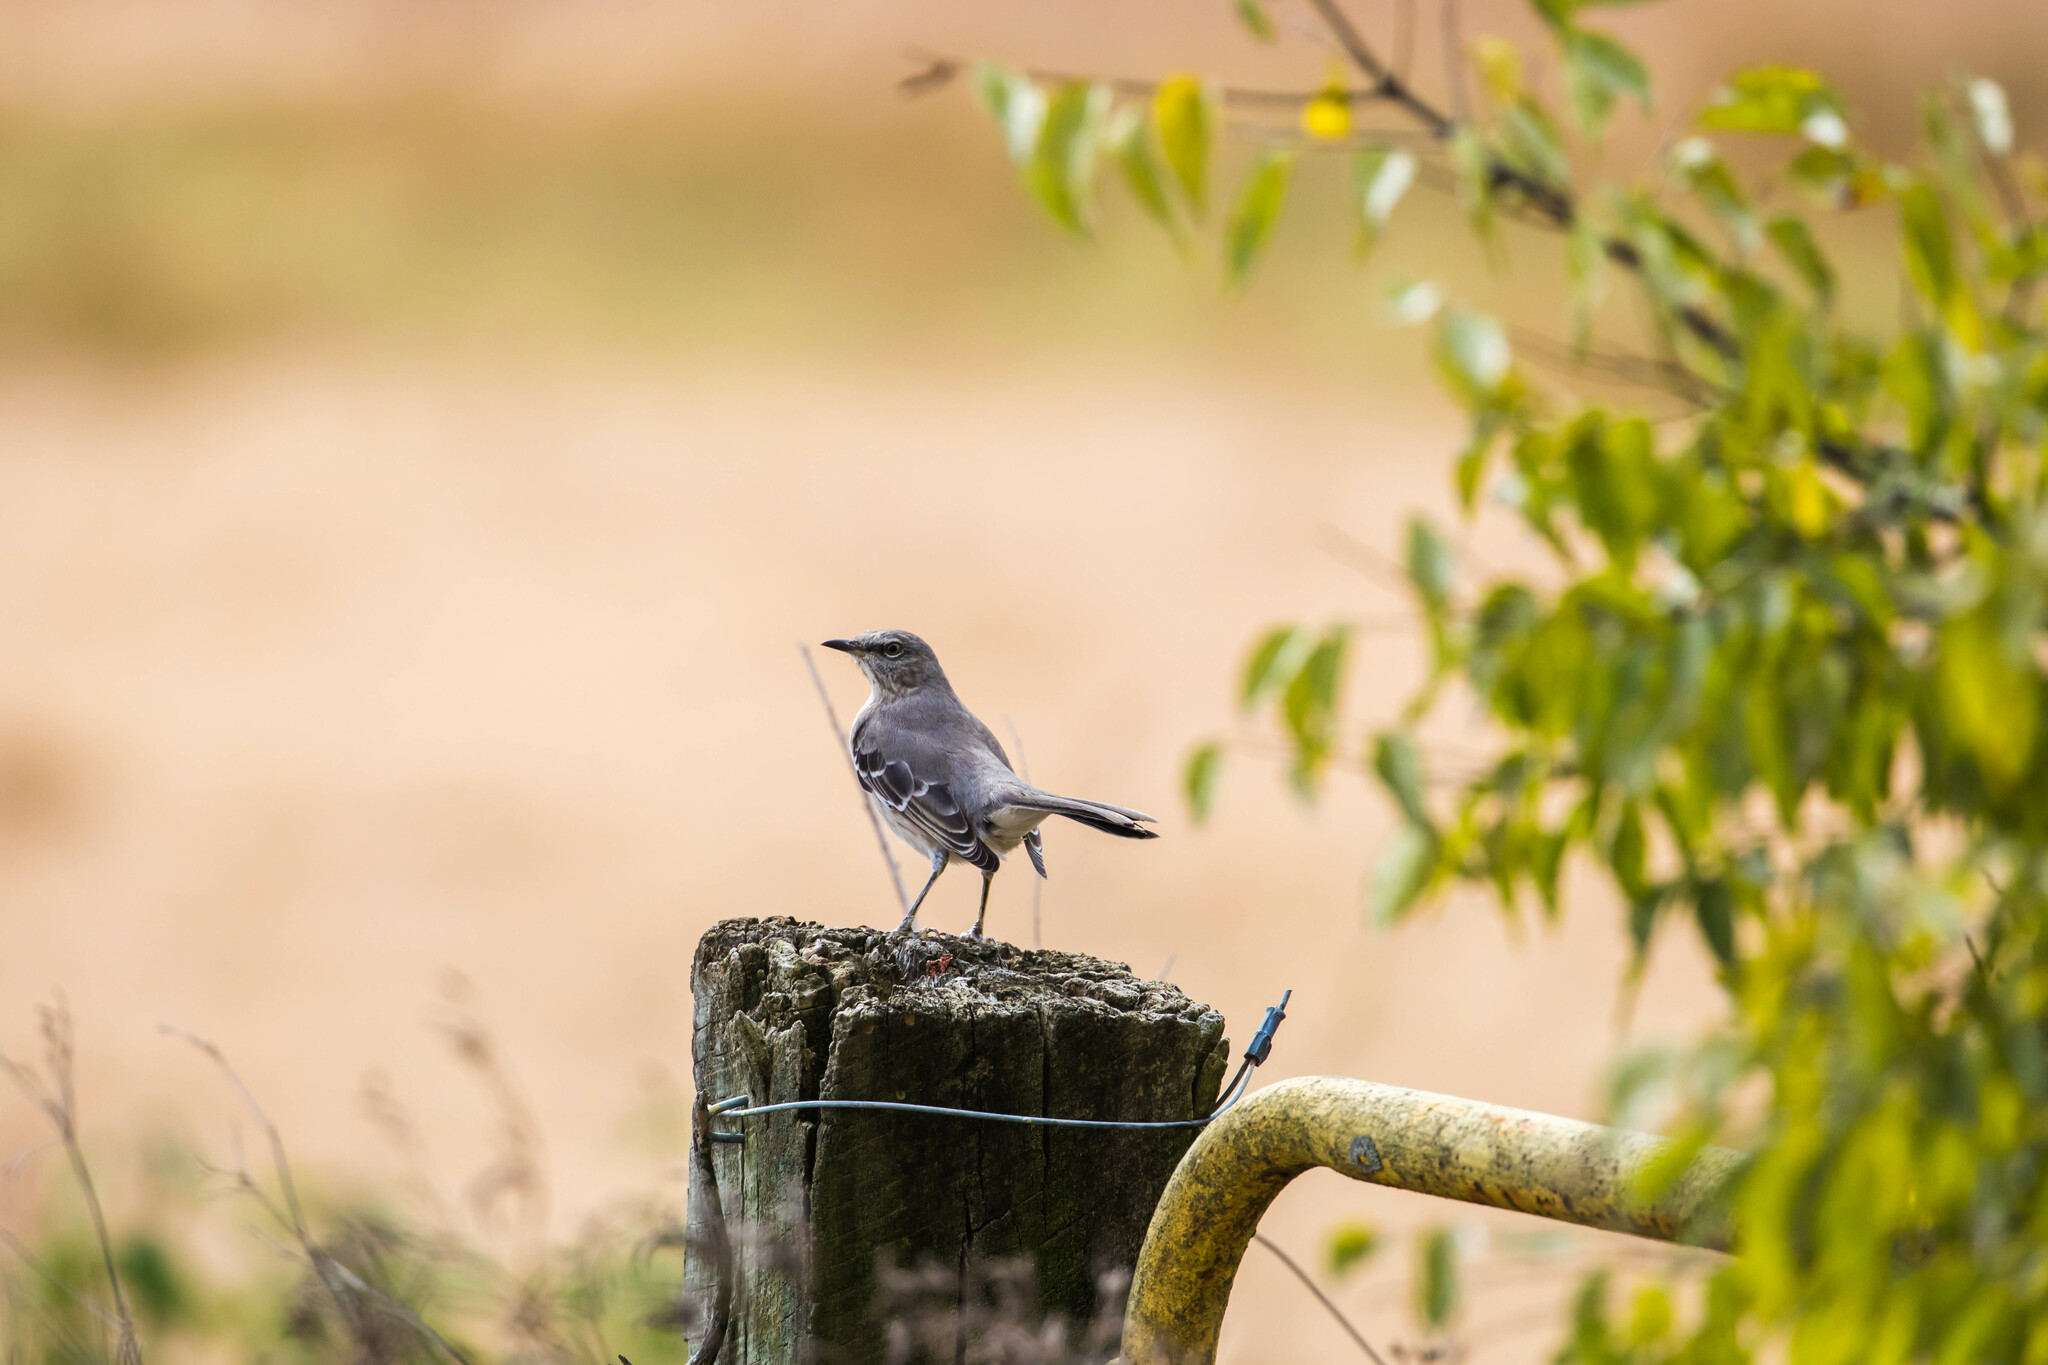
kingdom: Animalia
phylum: Chordata
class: Aves
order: Passeriformes
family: Mimidae
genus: Mimus
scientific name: Mimus polyglottos
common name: Northern mockingbird
